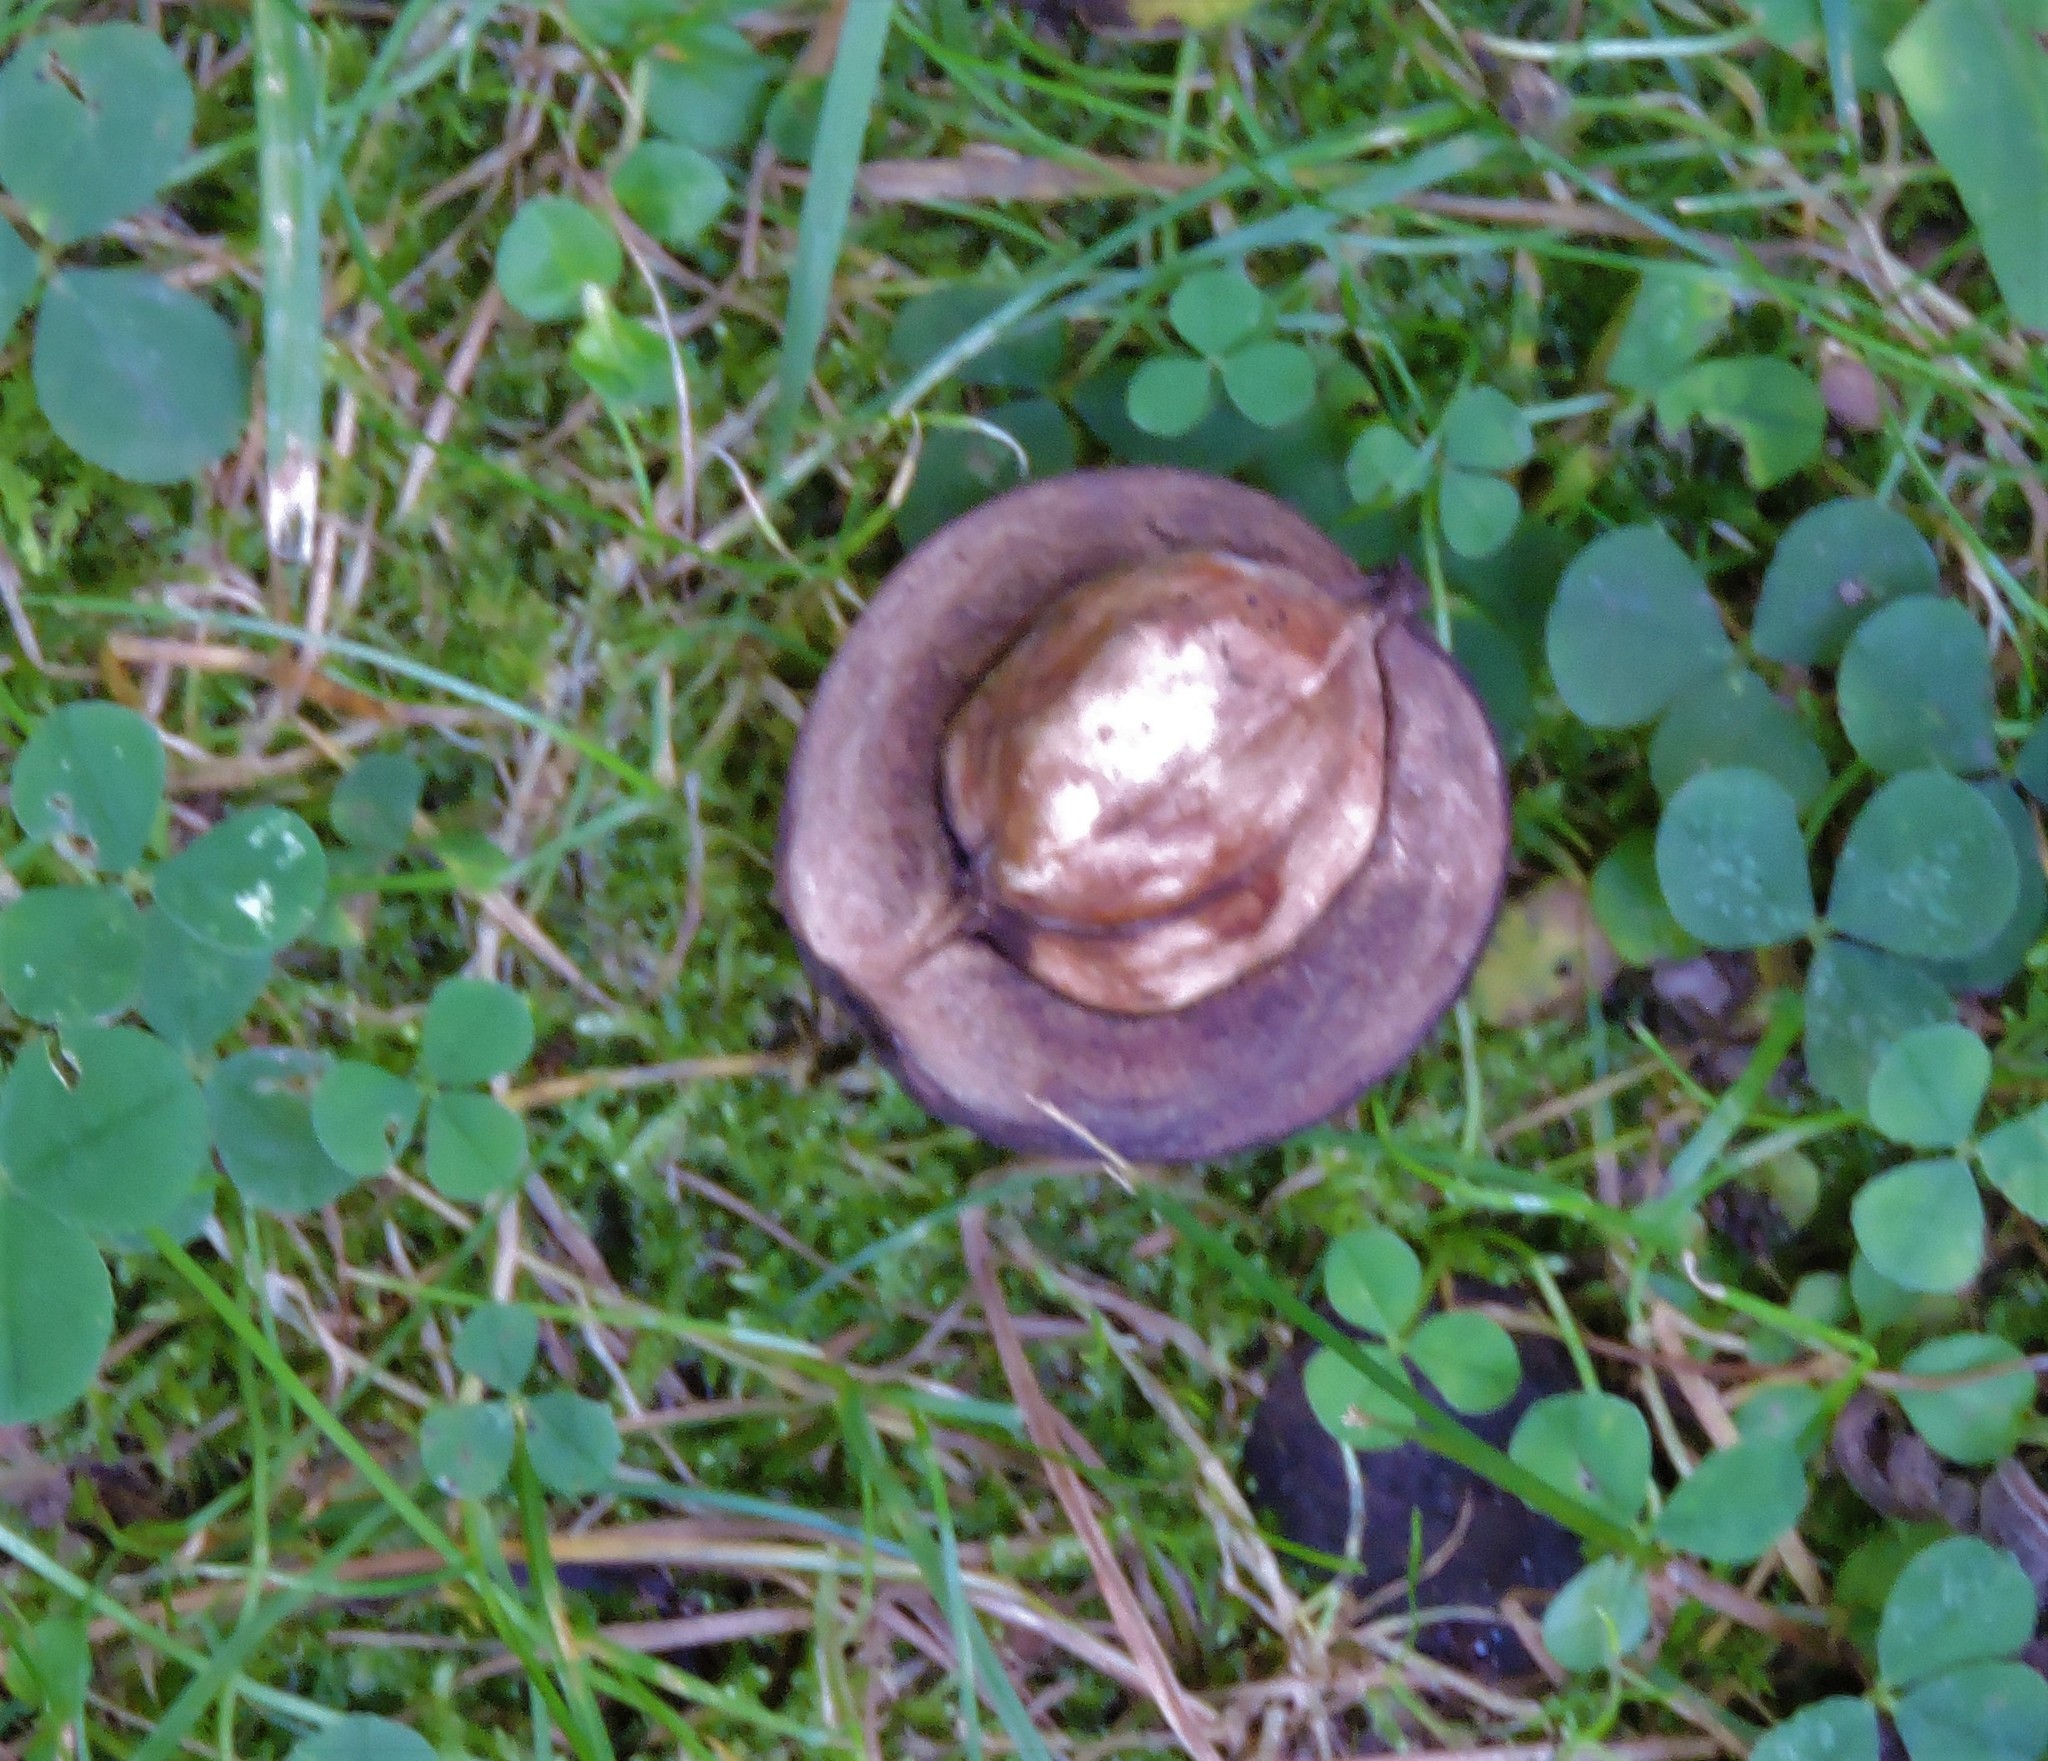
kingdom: Plantae
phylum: Tracheophyta
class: Magnoliopsida
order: Fagales
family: Juglandaceae
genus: Carya
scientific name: Carya ovata
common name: Shagbark hickory
